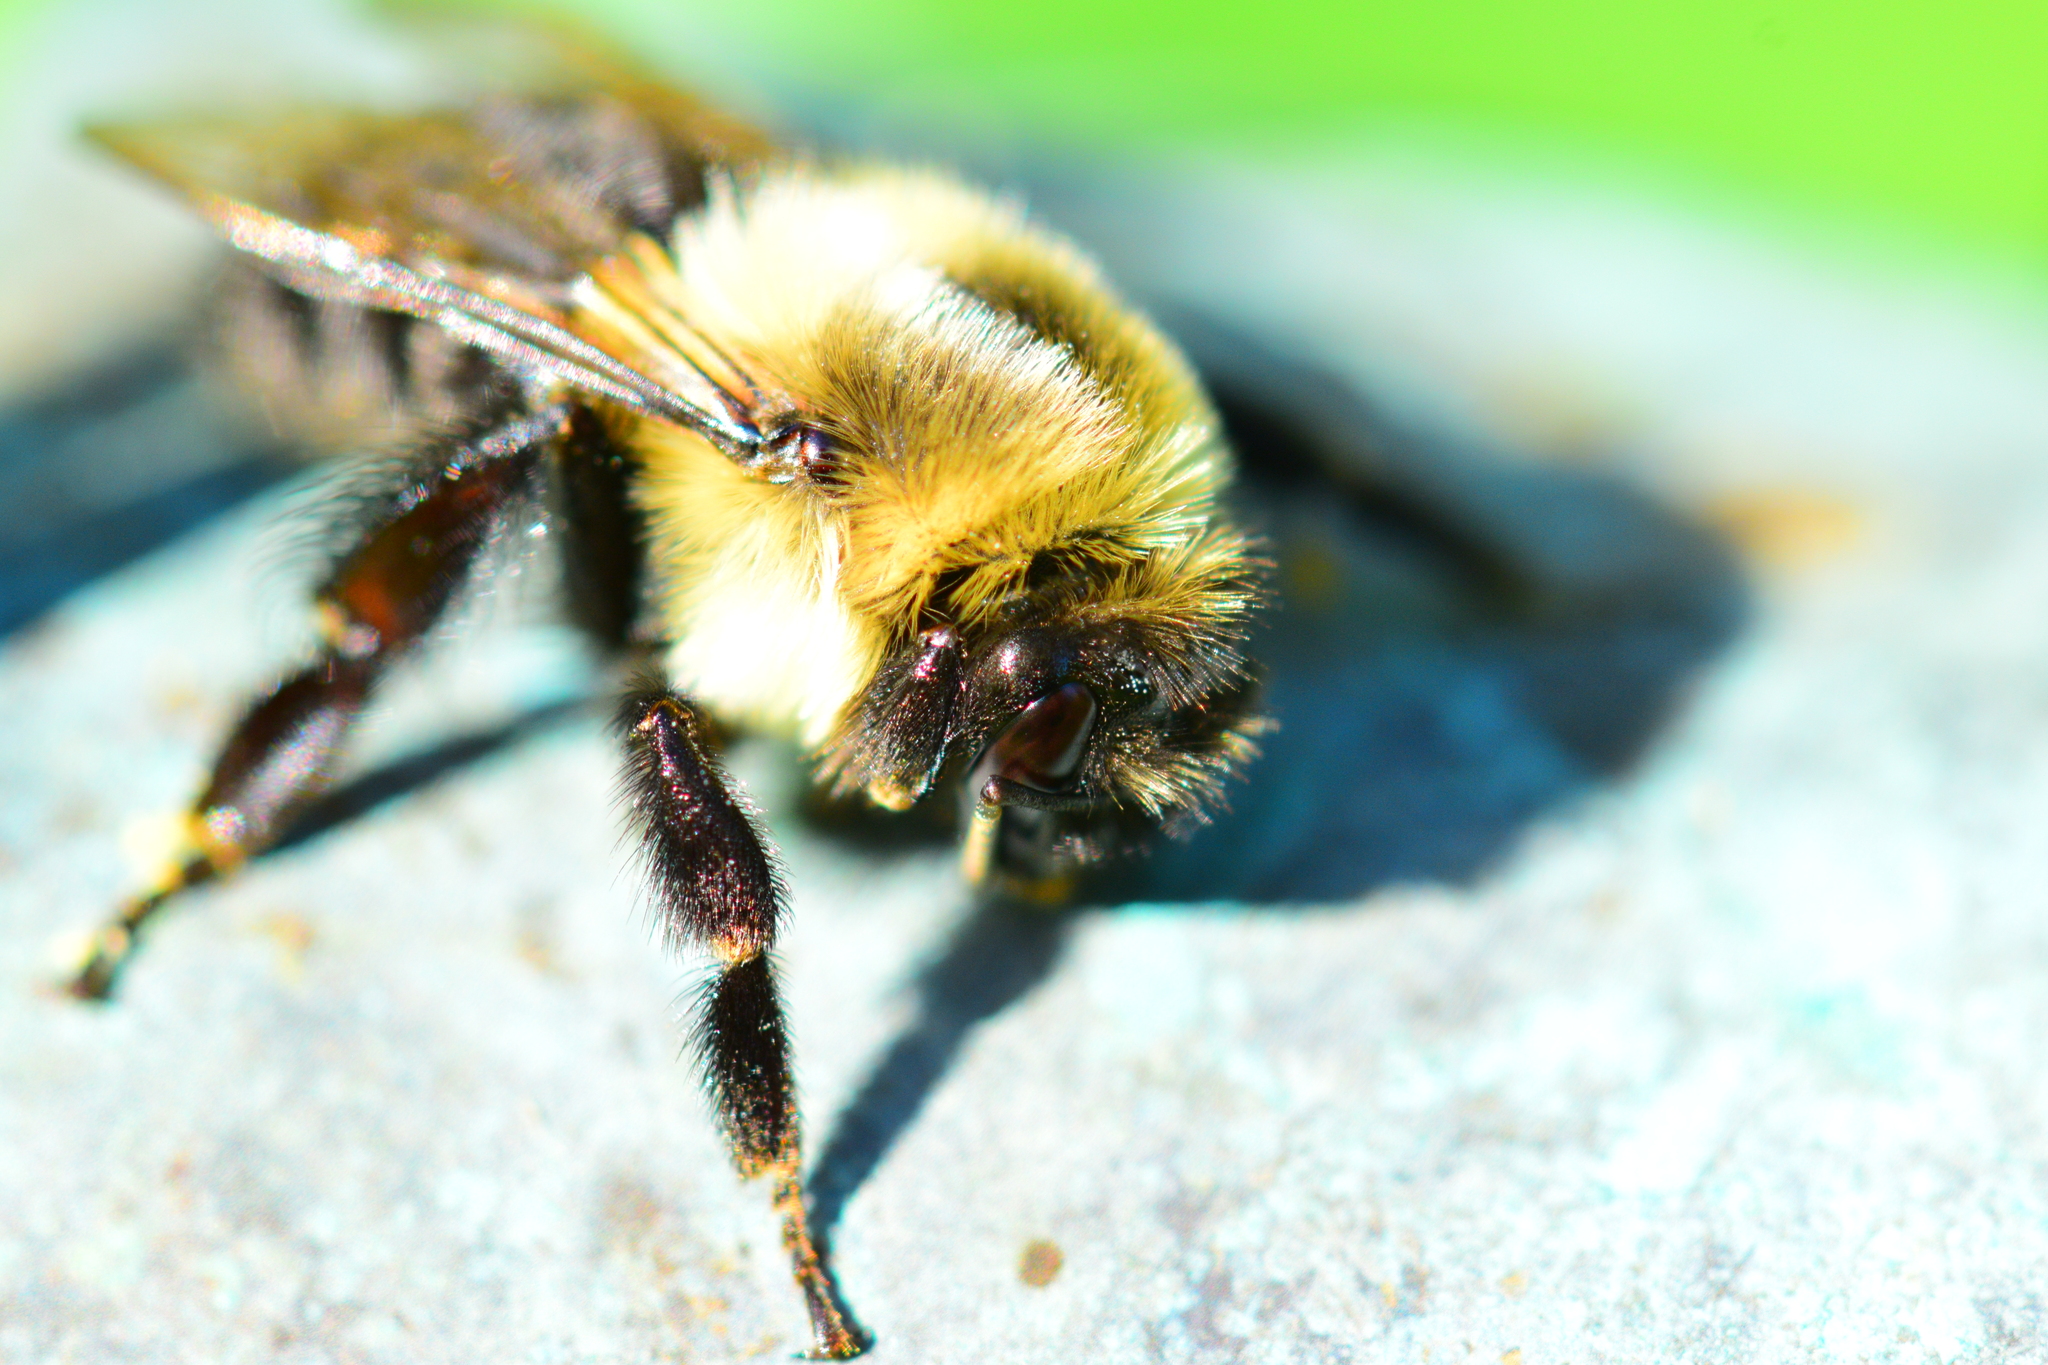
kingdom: Animalia
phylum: Arthropoda
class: Insecta
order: Hymenoptera
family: Apidae
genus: Bombus
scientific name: Bombus impatiens
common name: Common eastern bumble bee
